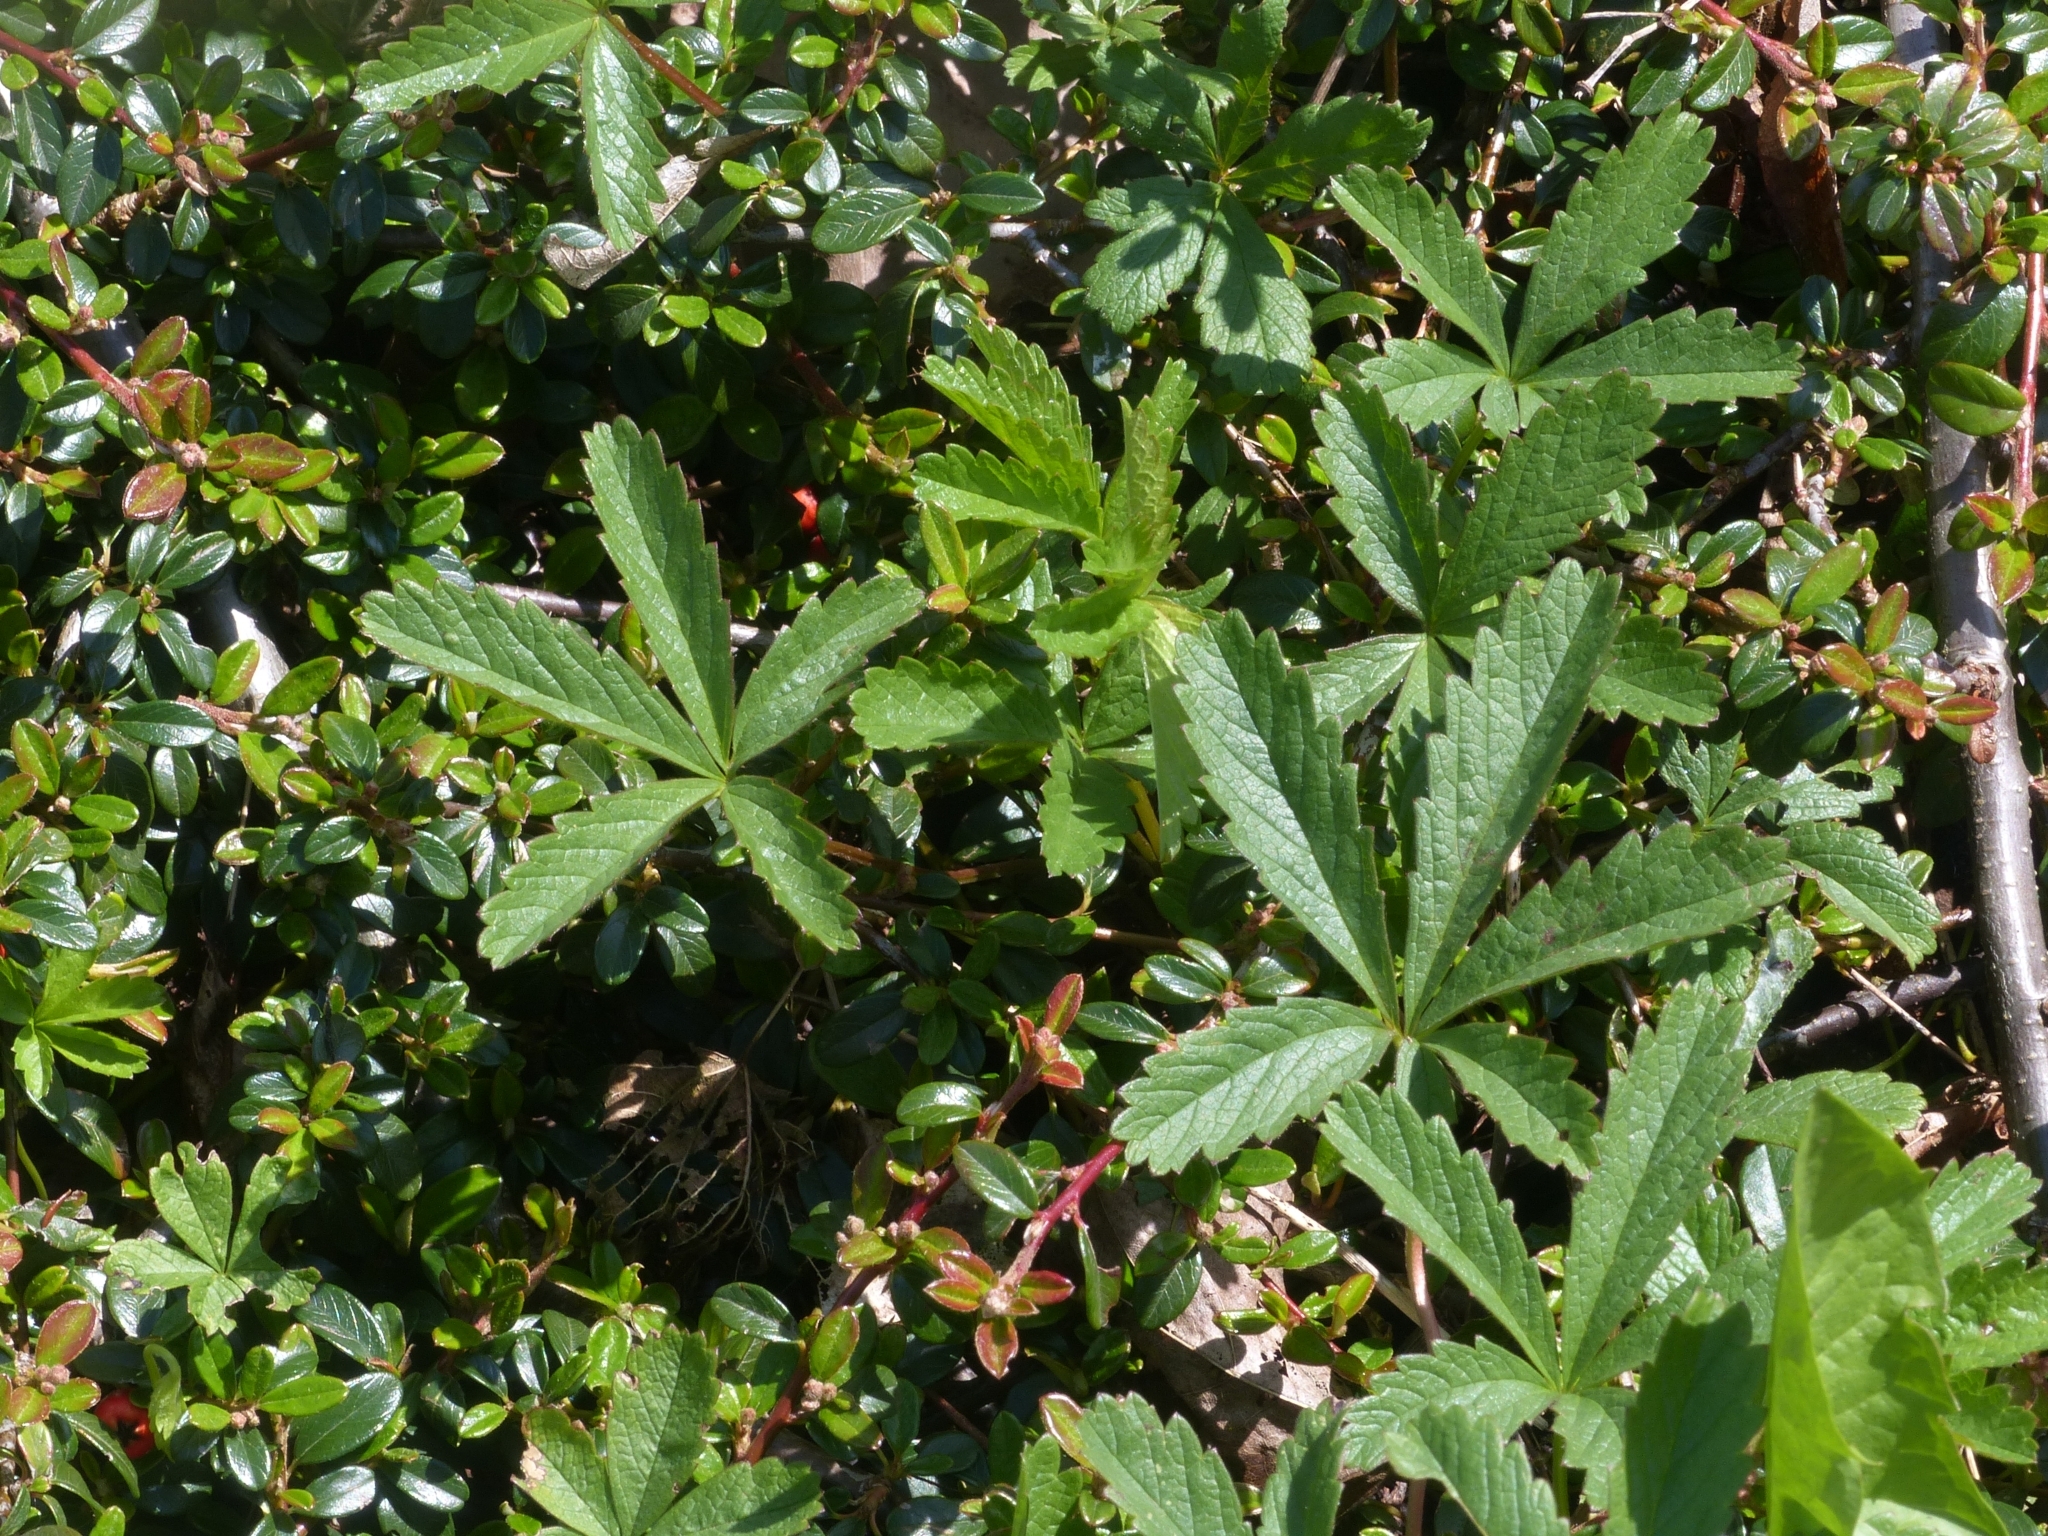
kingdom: Plantae
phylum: Tracheophyta
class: Magnoliopsida
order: Rosales
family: Rosaceae
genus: Potentilla
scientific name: Potentilla reptans
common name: Creeping cinquefoil
